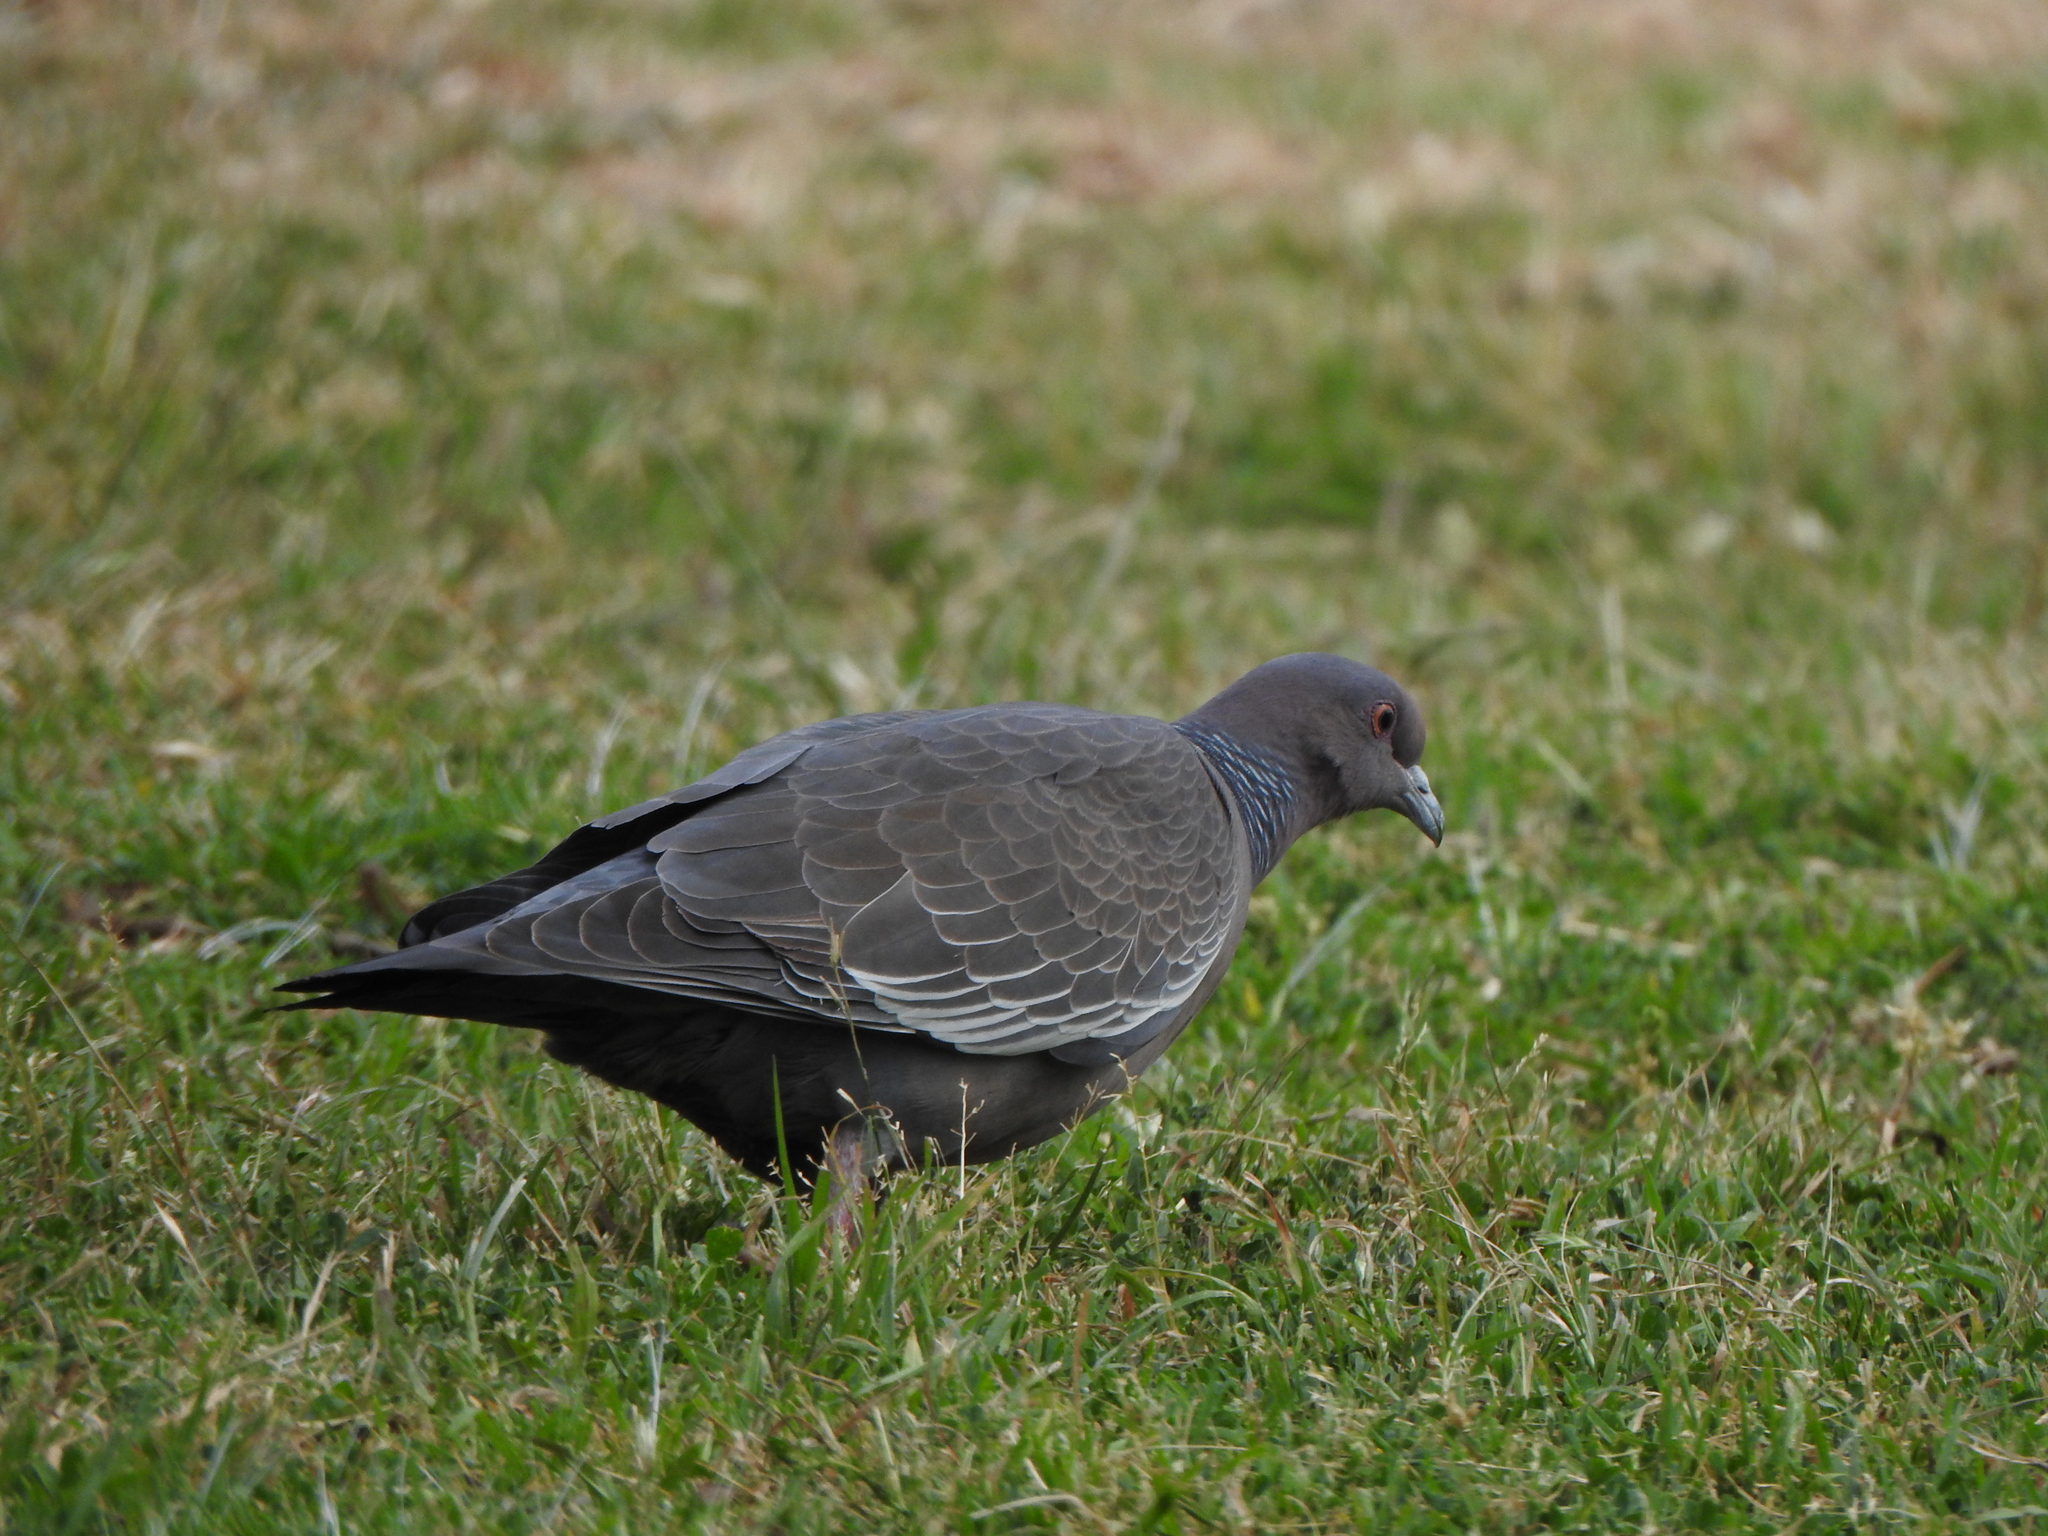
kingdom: Animalia
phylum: Chordata
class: Aves
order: Columbiformes
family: Columbidae
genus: Patagioenas
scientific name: Patagioenas picazuro
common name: Picazuro pigeon
